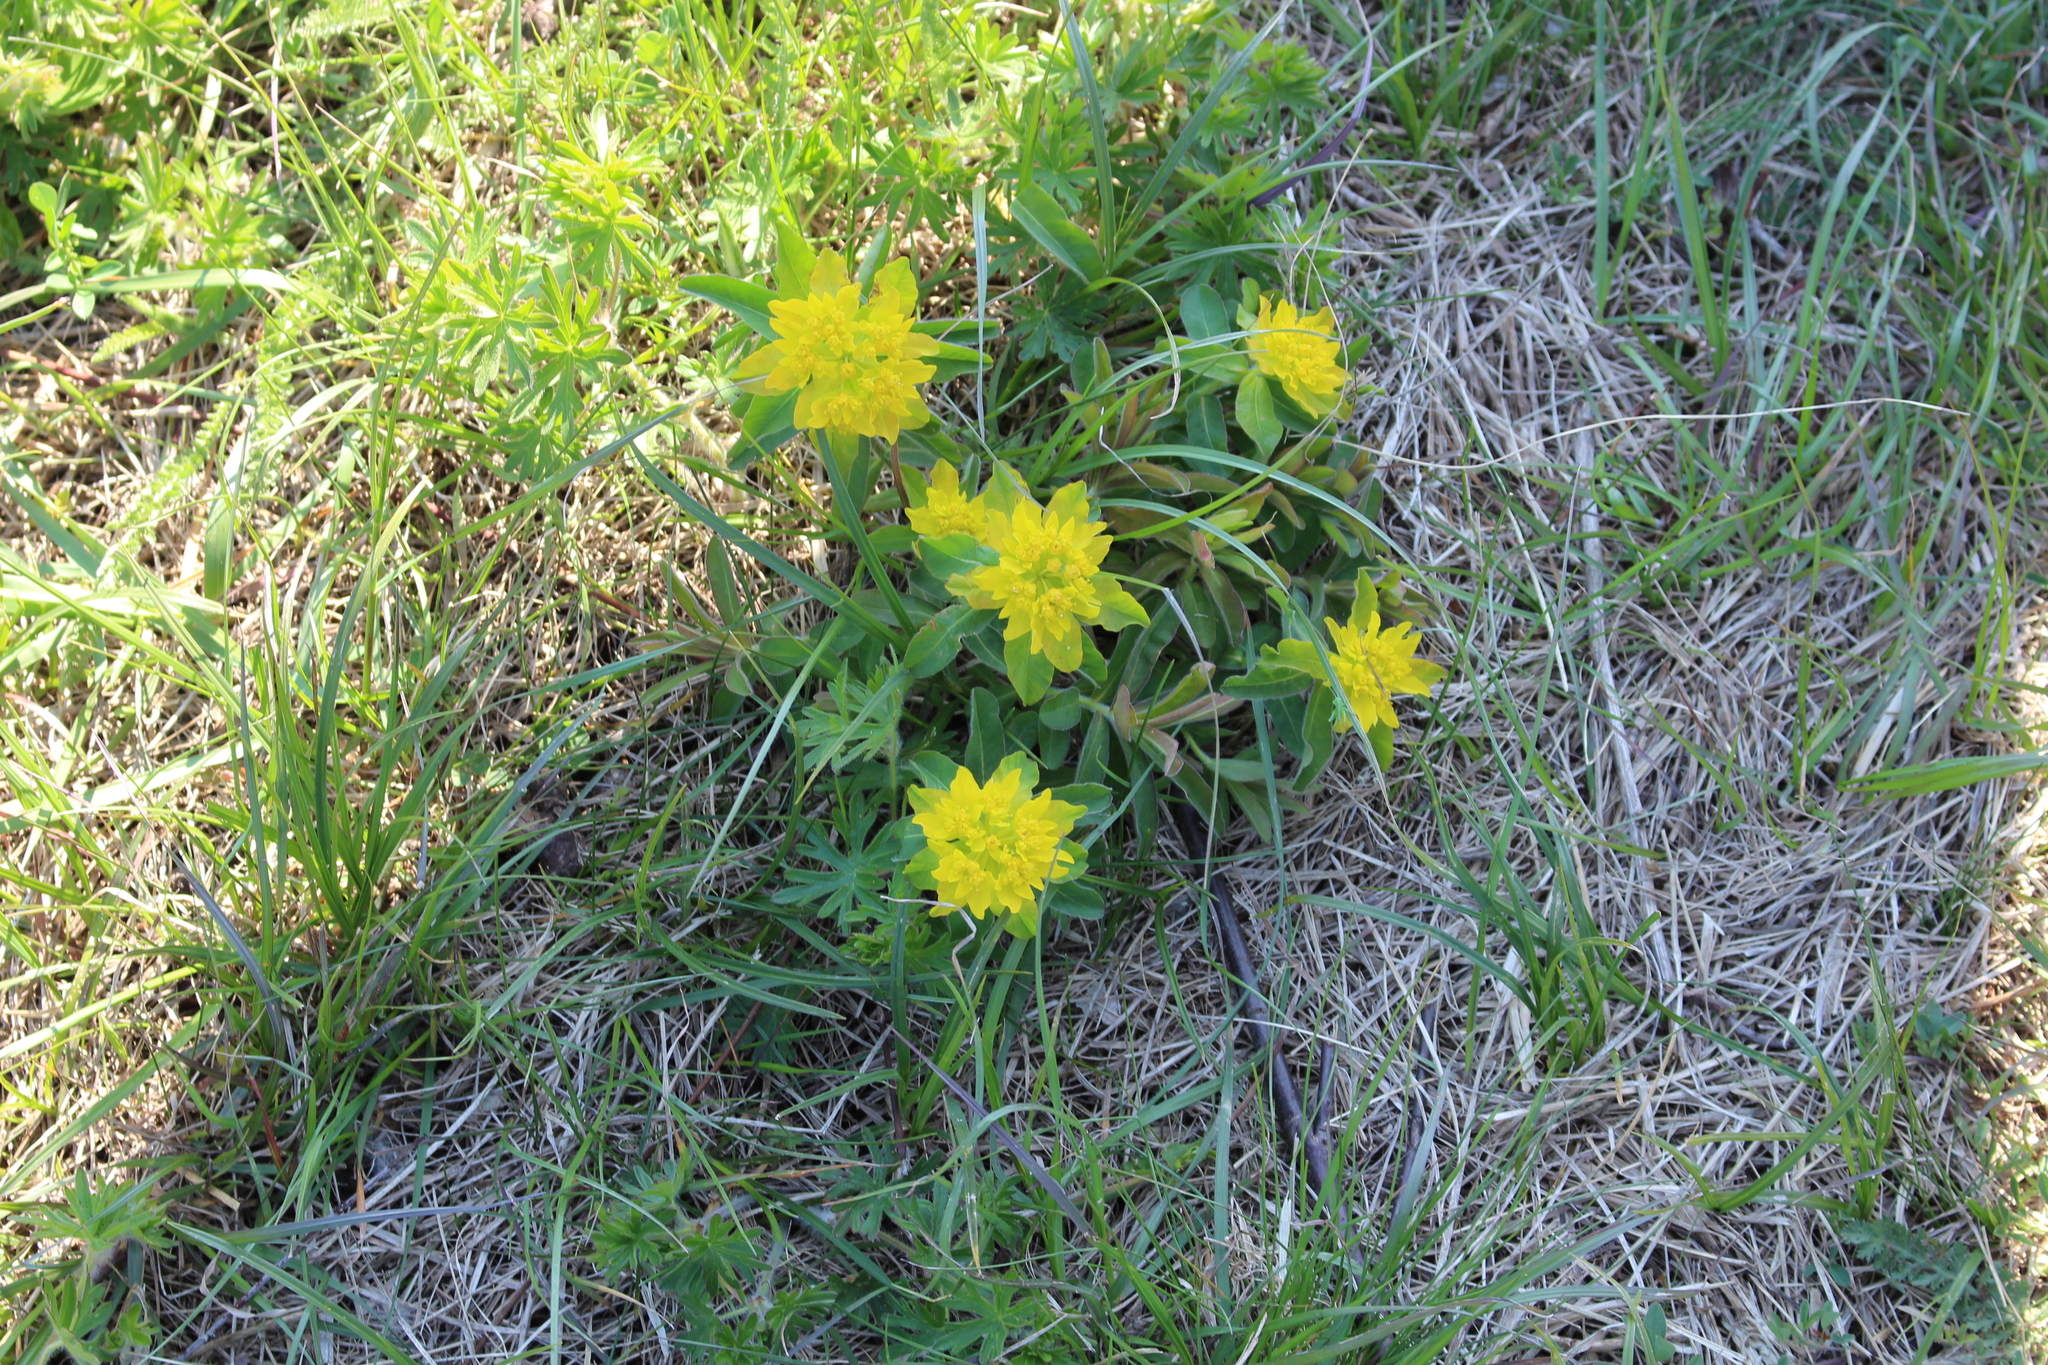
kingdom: Plantae
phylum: Tracheophyta
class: Magnoliopsida
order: Malpighiales
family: Euphorbiaceae
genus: Euphorbia
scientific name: Euphorbia epithymoides
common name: Cushion spurge
